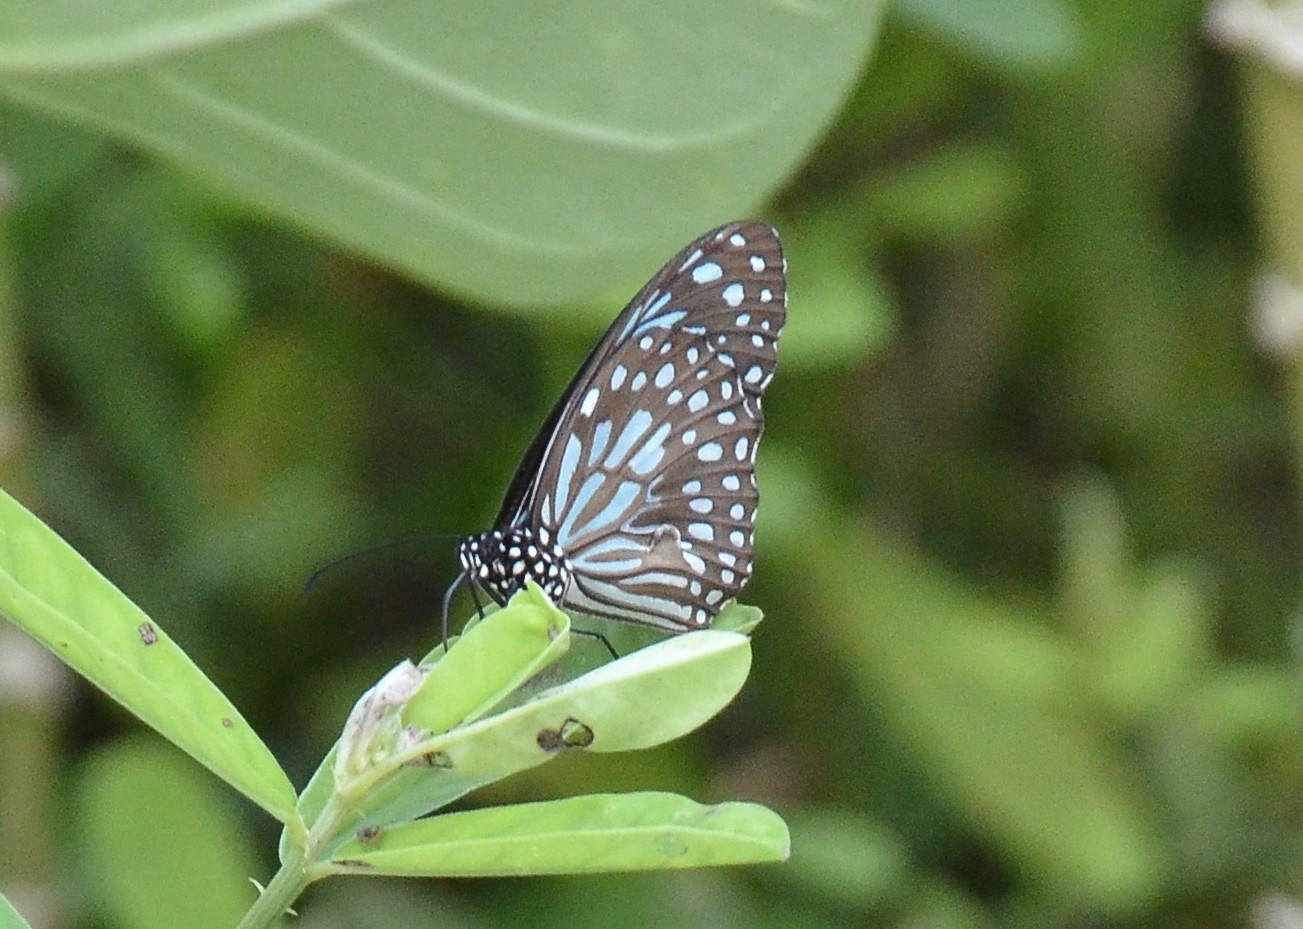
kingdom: Animalia
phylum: Arthropoda
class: Insecta
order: Lepidoptera
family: Nymphalidae
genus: Tirumala
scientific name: Tirumala septentrionis
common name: Dark blue tiger butterfly
